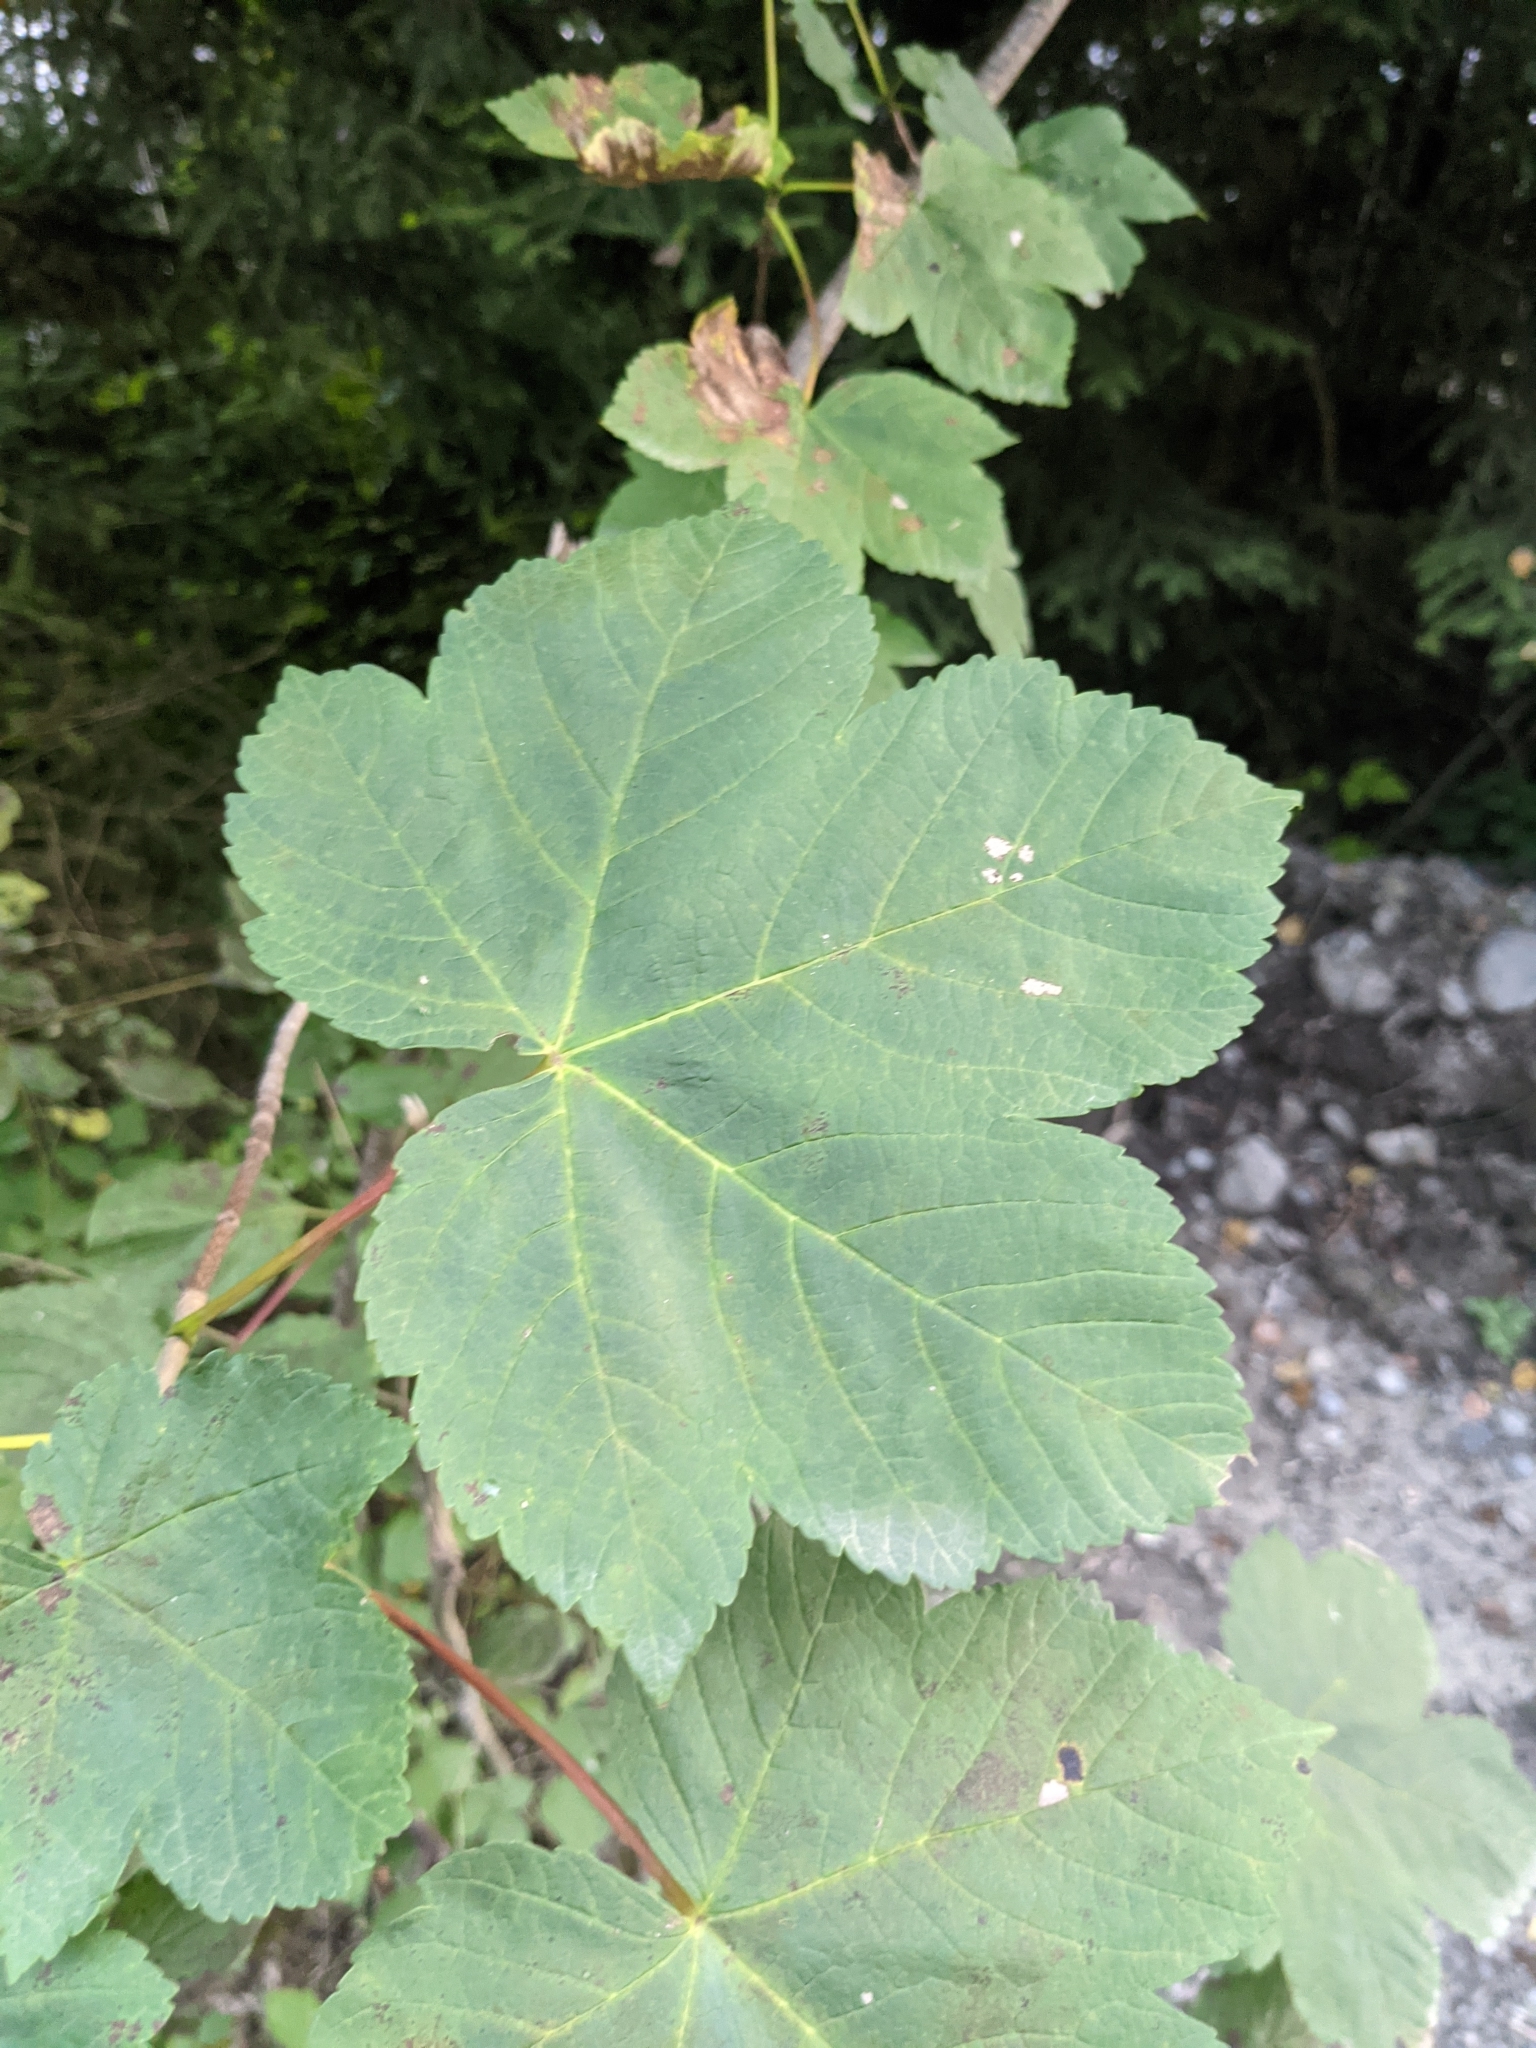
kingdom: Plantae
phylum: Tracheophyta
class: Magnoliopsida
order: Sapindales
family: Sapindaceae
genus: Acer
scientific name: Acer pseudoplatanus
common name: Sycamore
